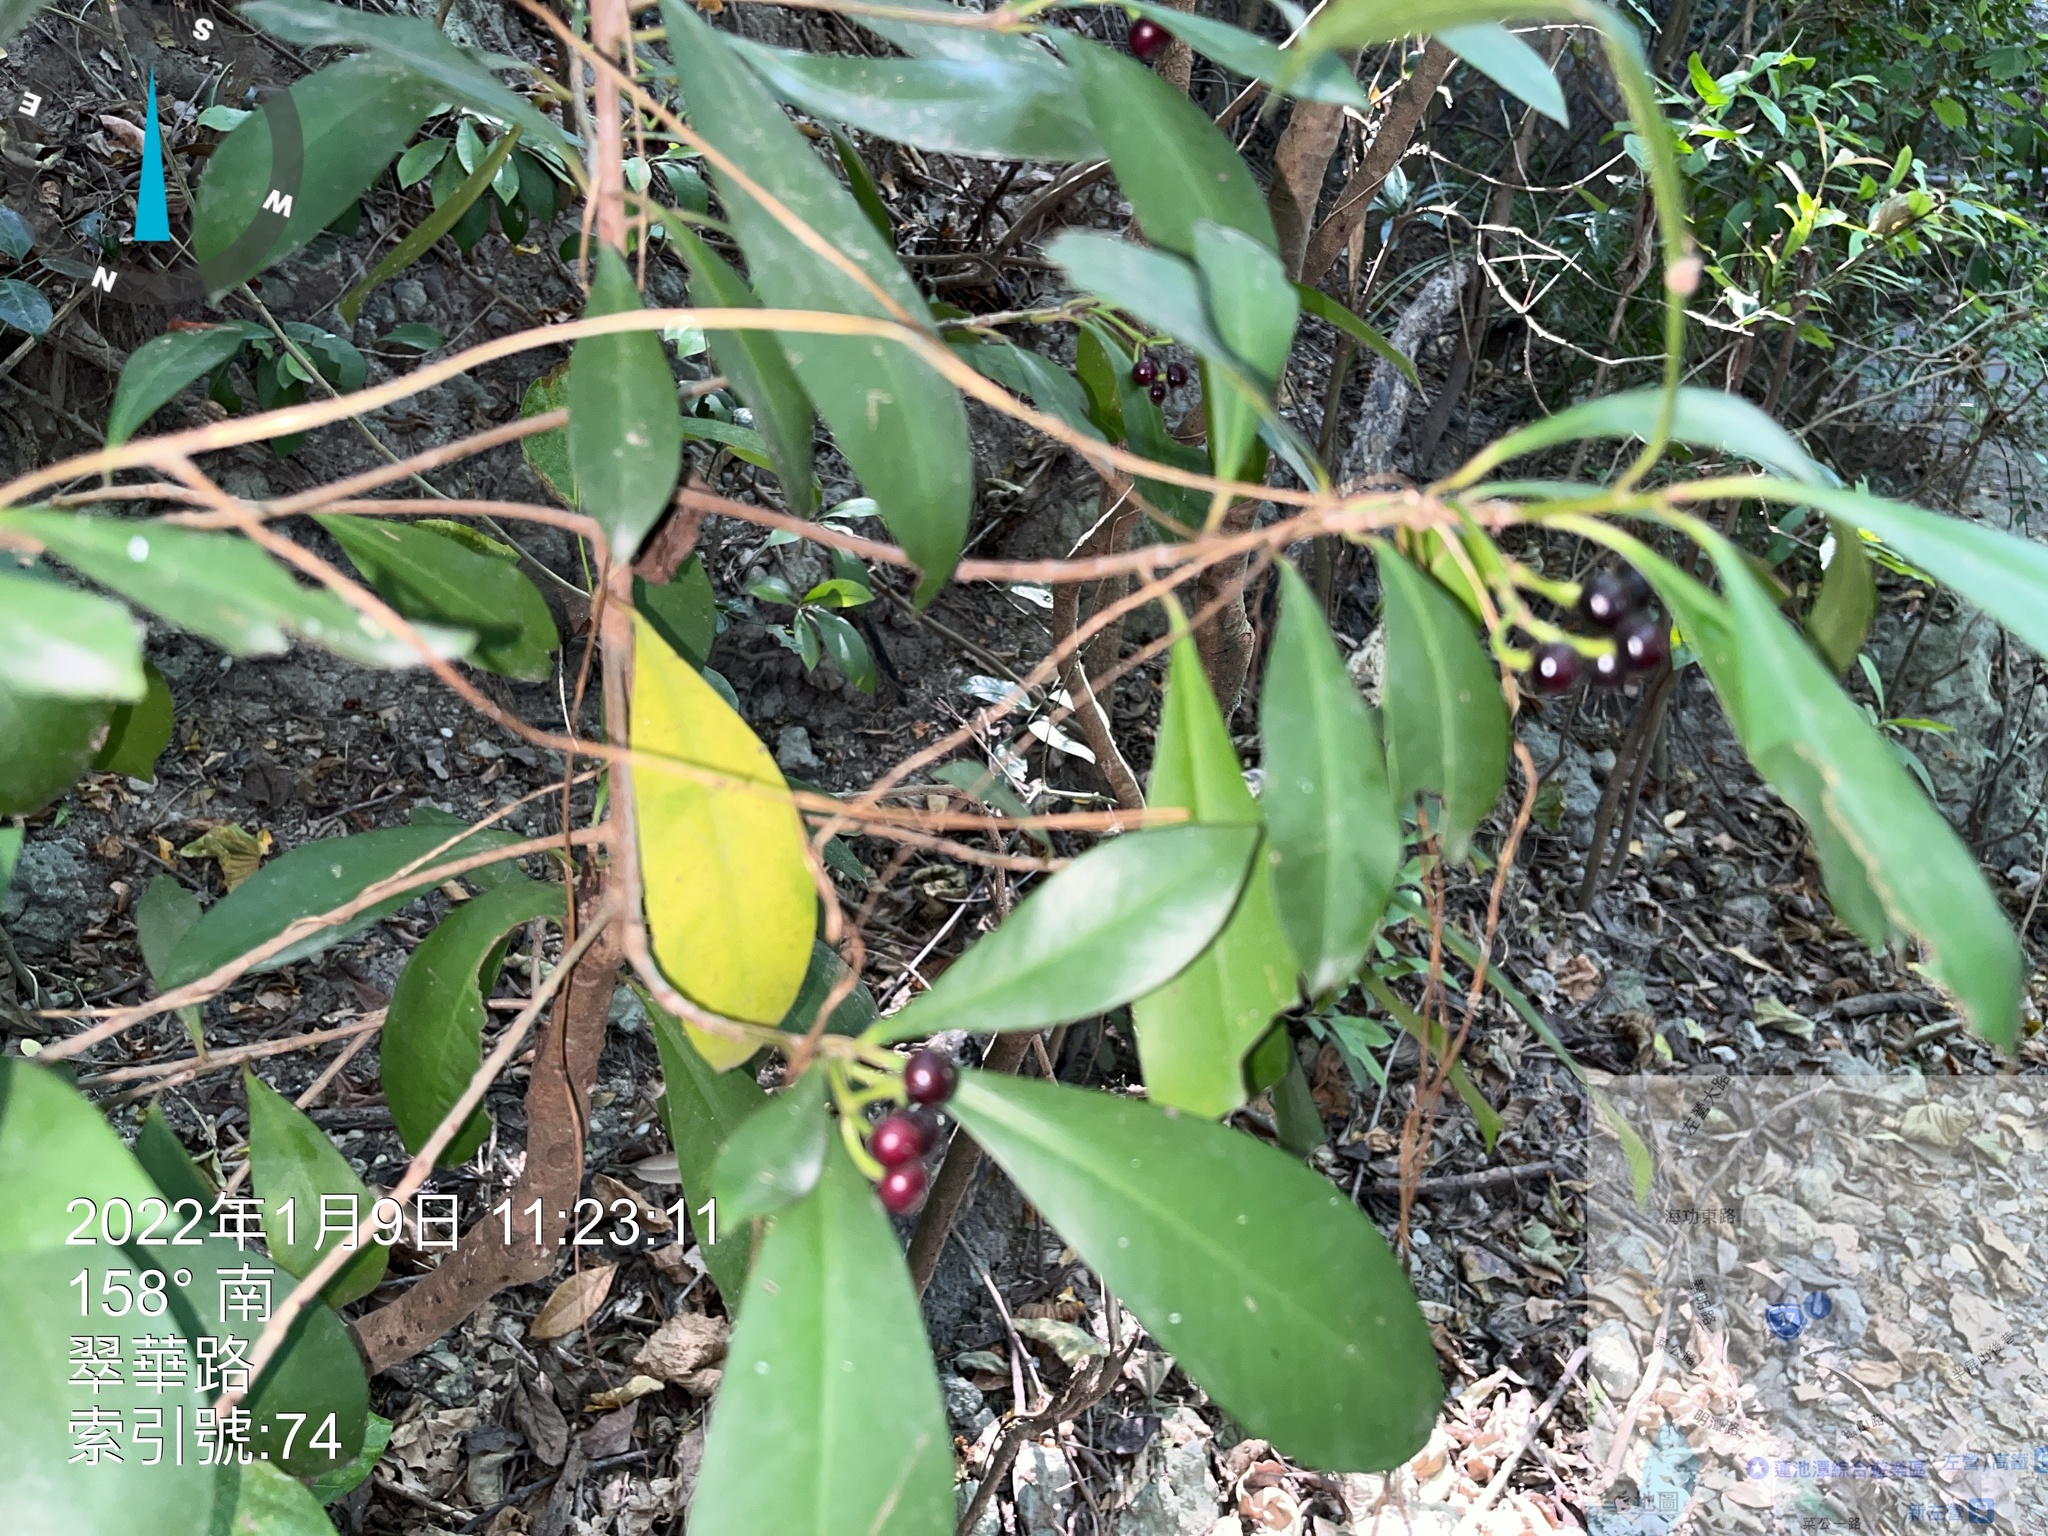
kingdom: Plantae
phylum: Tracheophyta
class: Magnoliopsida
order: Ericales
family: Primulaceae
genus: Ardisia
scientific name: Ardisia elliptica
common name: Shoebutton
